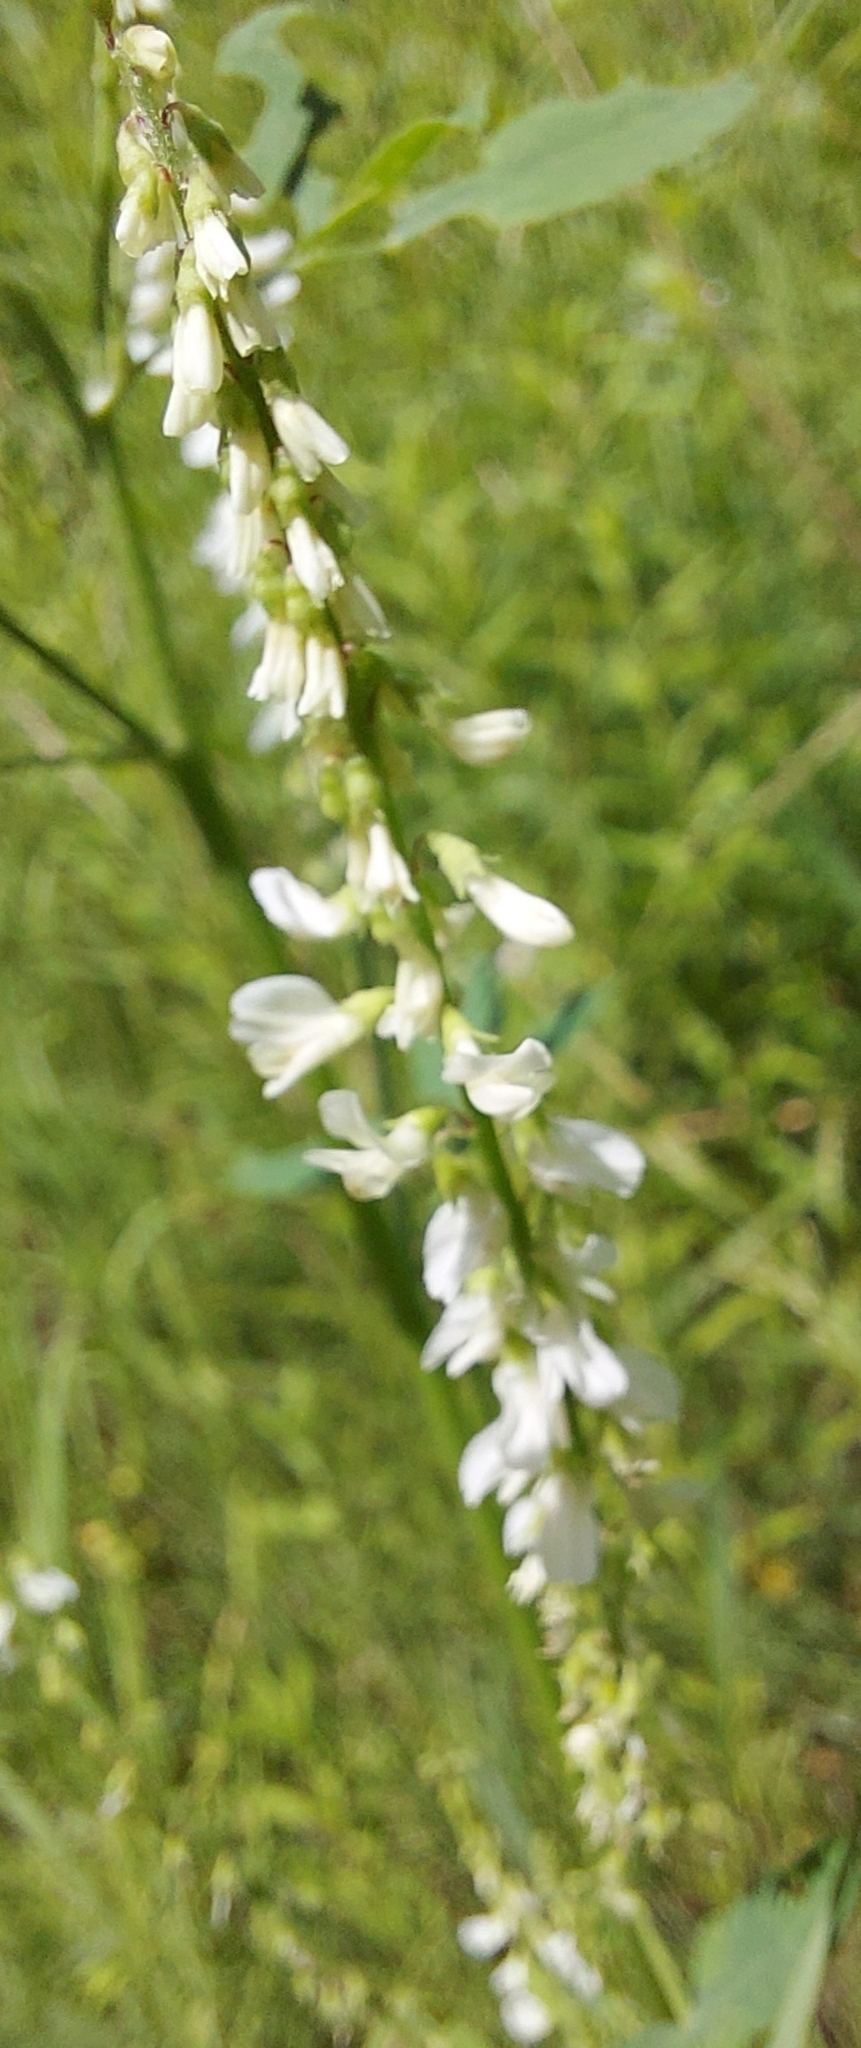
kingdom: Plantae
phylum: Tracheophyta
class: Magnoliopsida
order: Fabales
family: Fabaceae
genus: Melilotus
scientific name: Melilotus albus
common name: White melilot
